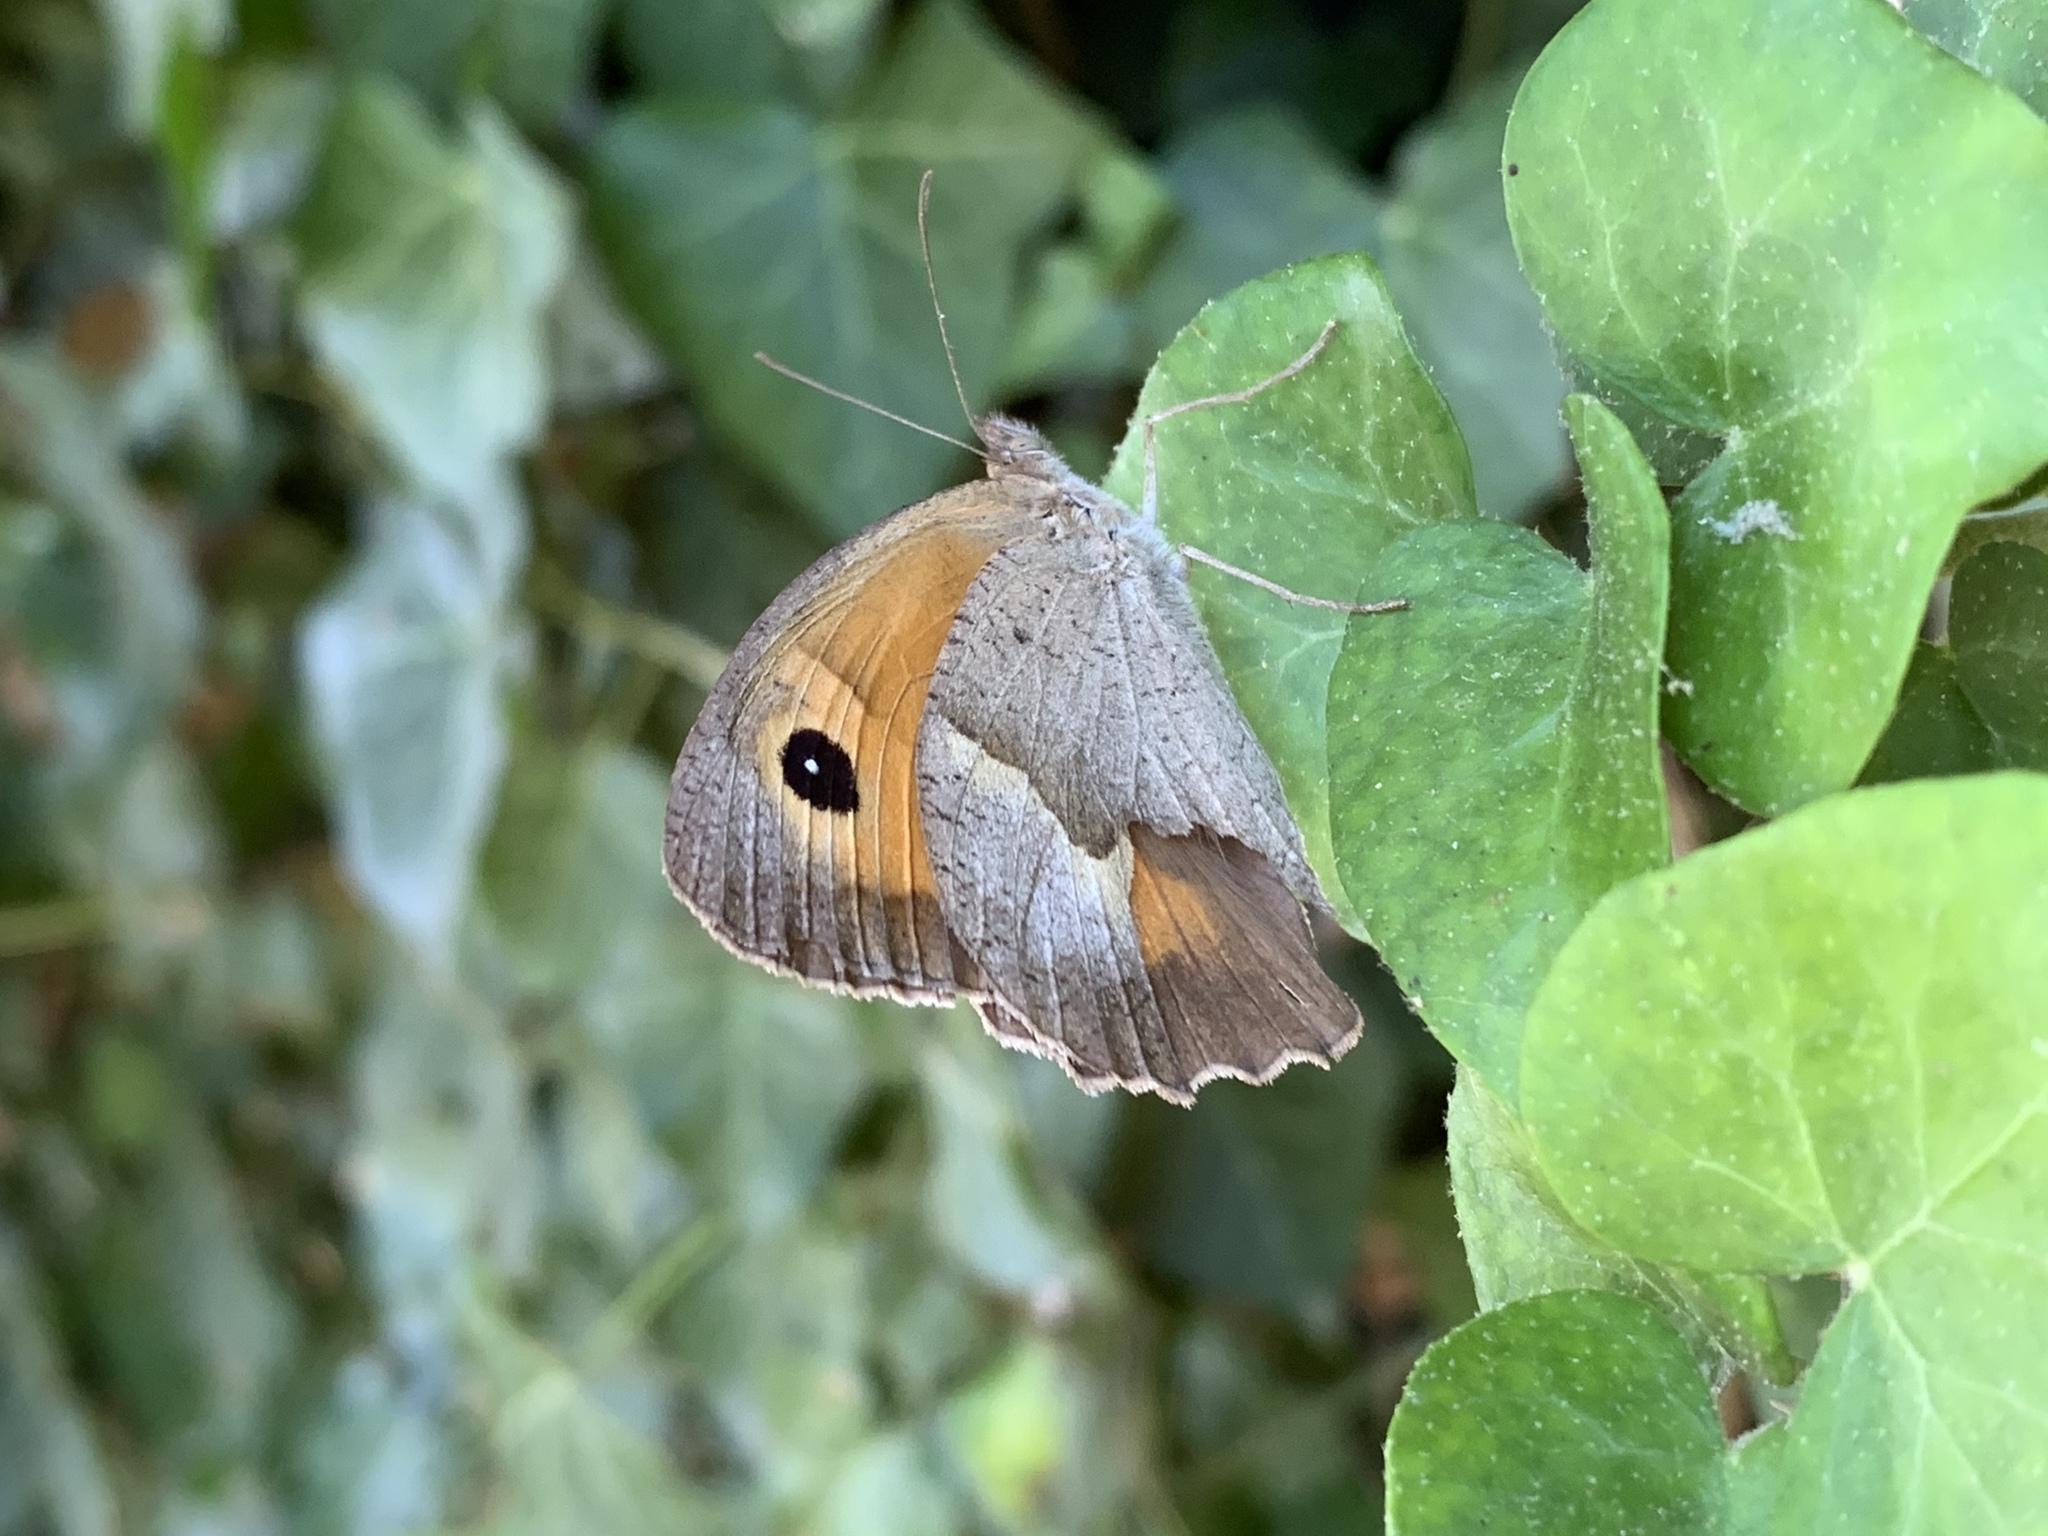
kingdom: Animalia
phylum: Arthropoda
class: Insecta
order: Lepidoptera
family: Nymphalidae
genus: Maniola
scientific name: Maniola jurtina
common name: Meadow brown
